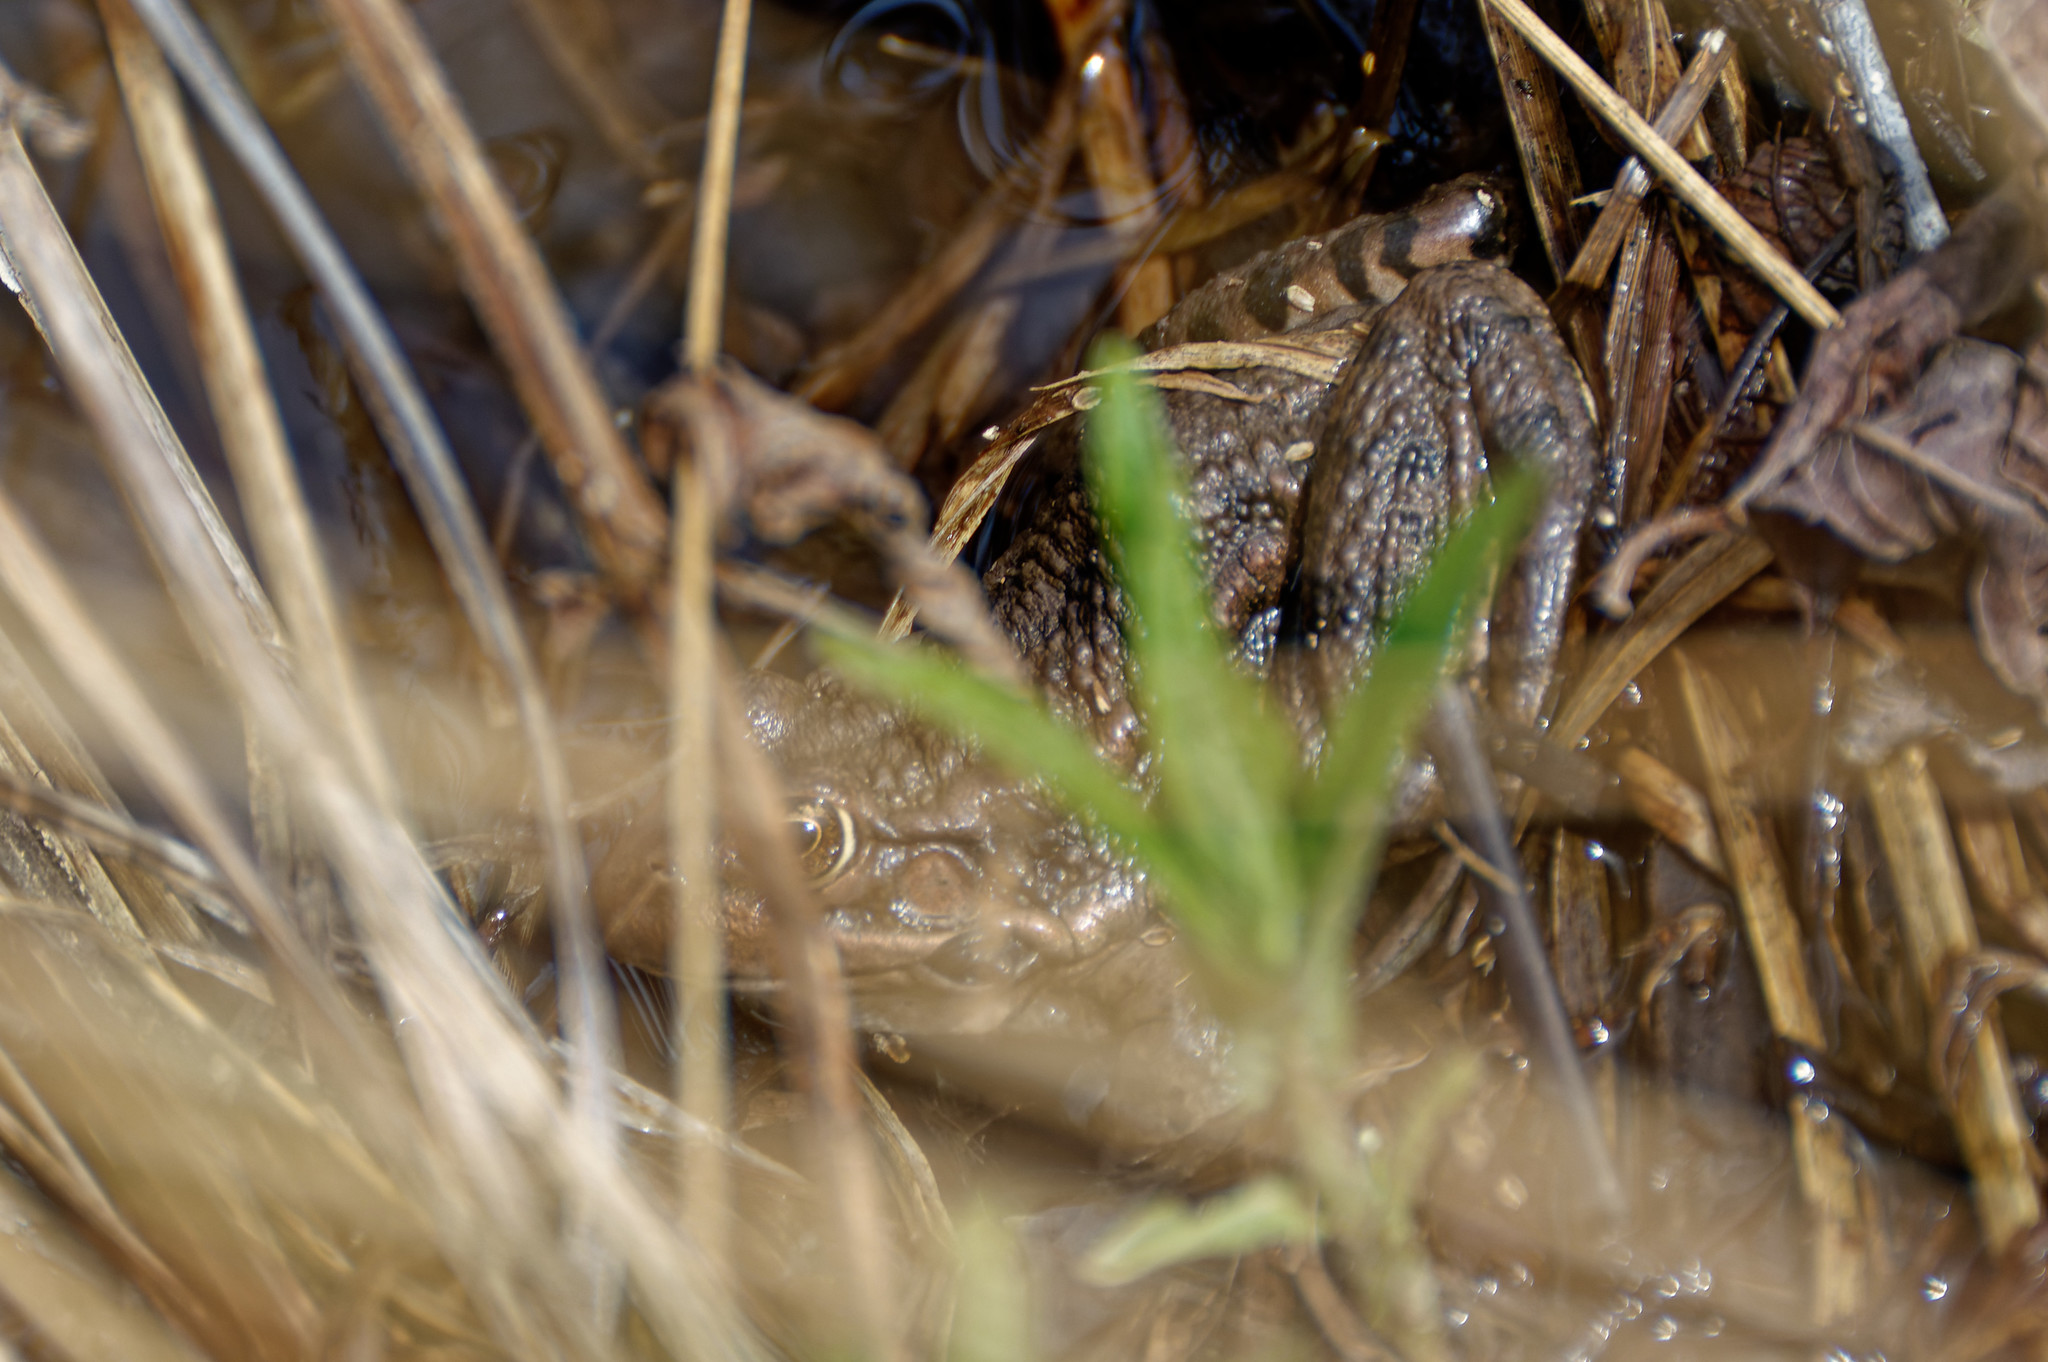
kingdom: Animalia
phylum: Chordata
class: Amphibia
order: Anura
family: Ranidae
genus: Pelophylax
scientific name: Pelophylax ridibundus
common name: Marsh frog
